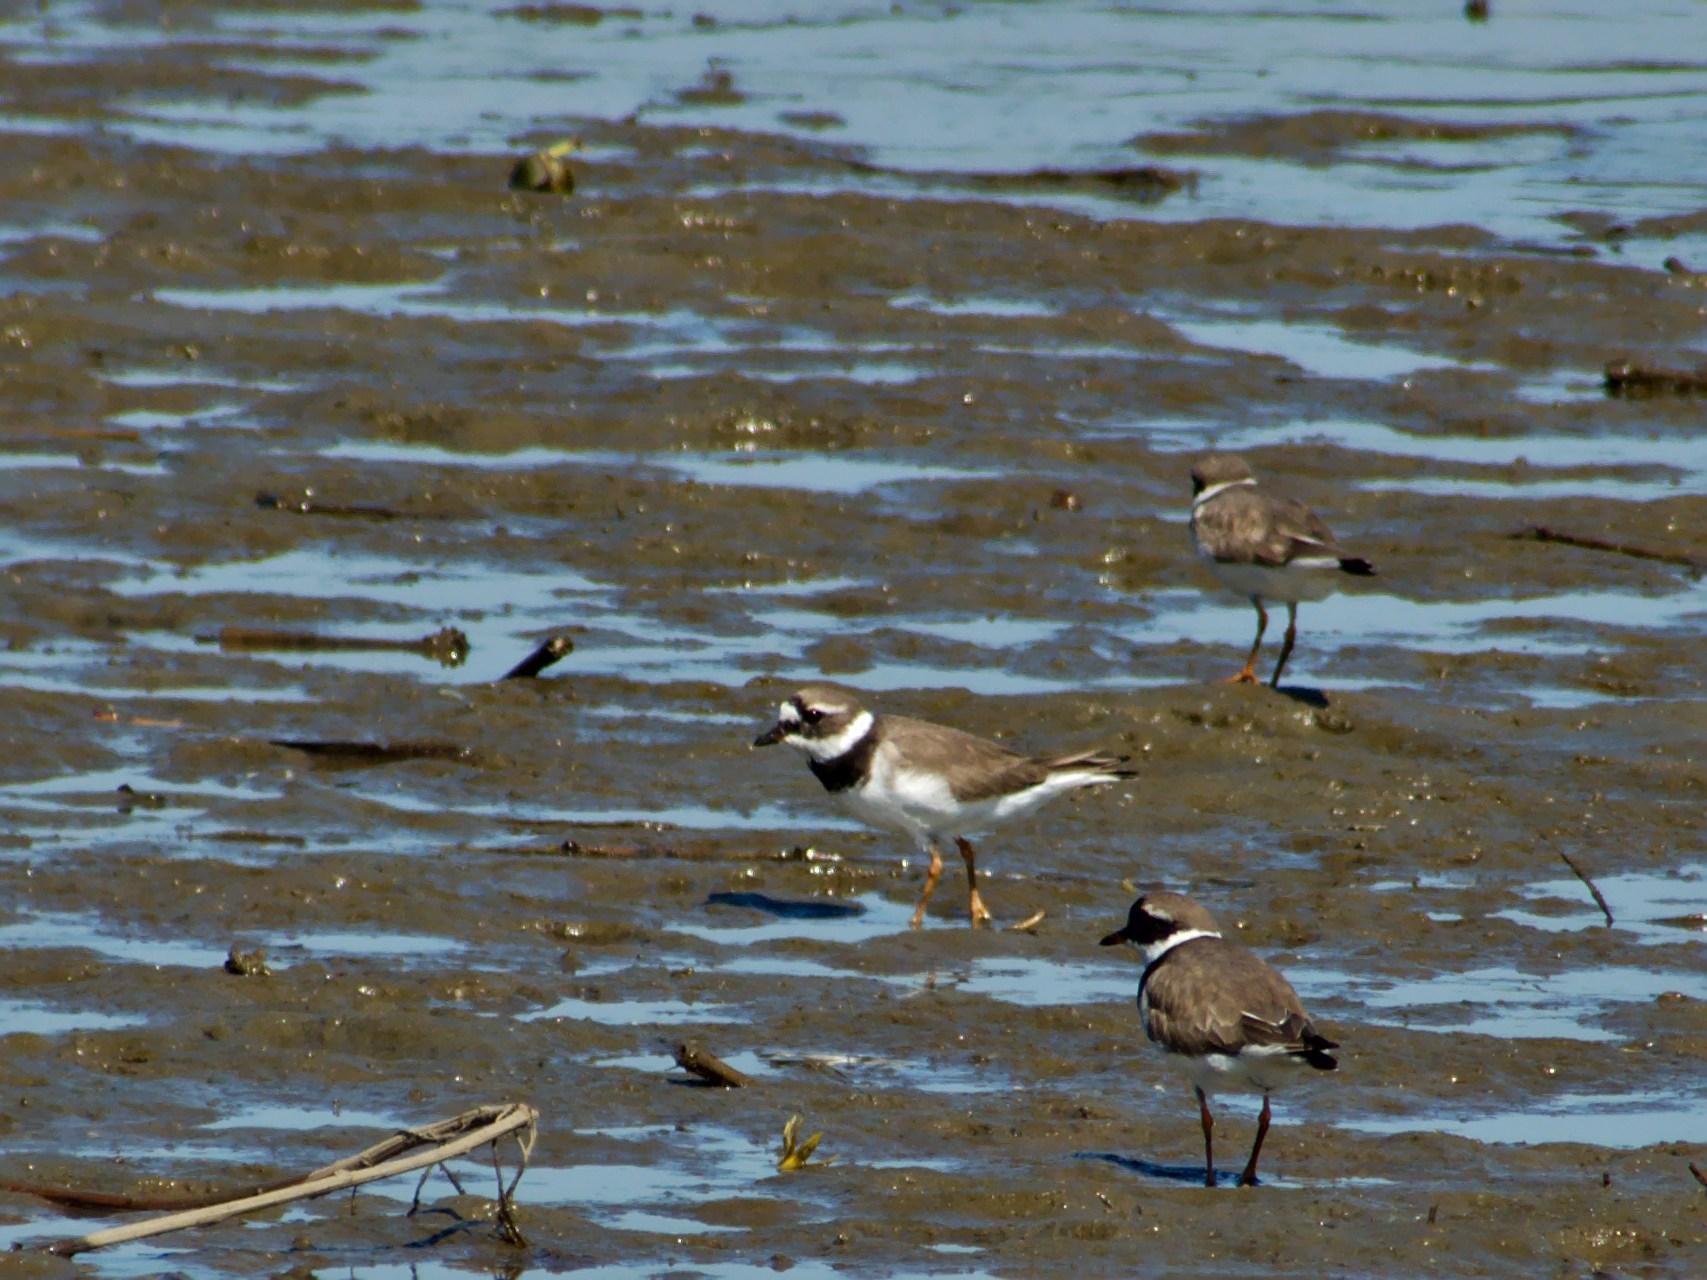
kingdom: Animalia
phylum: Chordata
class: Aves
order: Charadriiformes
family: Charadriidae
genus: Charadrius
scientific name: Charadrius hiaticula
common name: Common ringed plover
